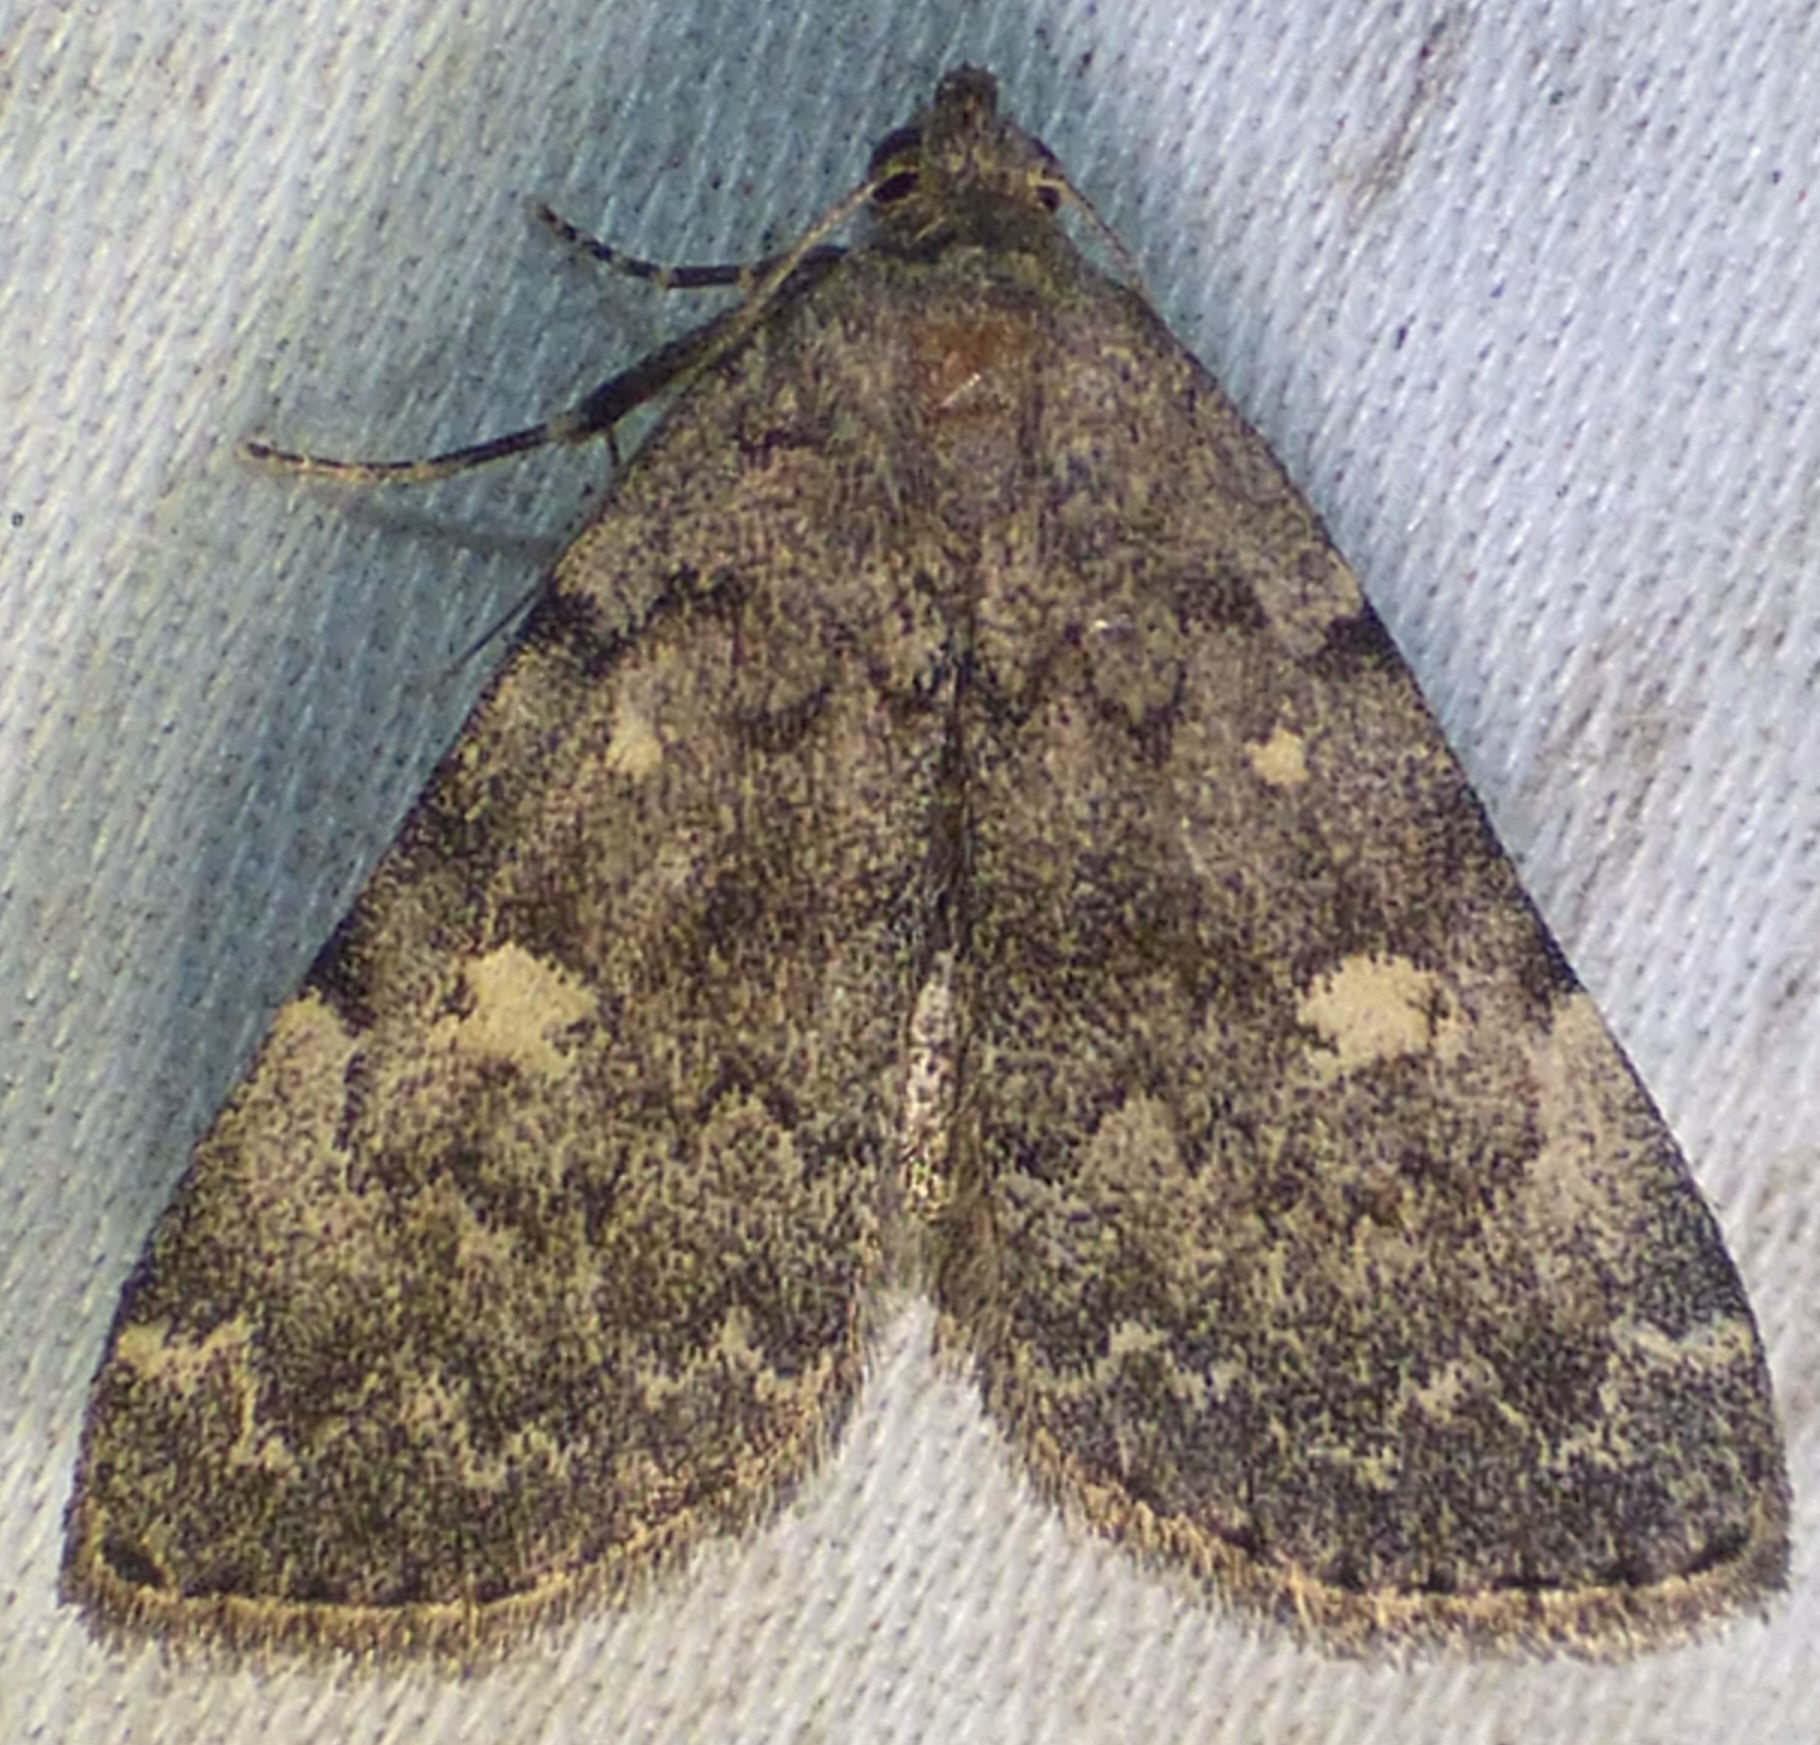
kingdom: Animalia
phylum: Arthropoda
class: Insecta
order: Lepidoptera
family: Erebidae
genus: Idia
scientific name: Idia aemula
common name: Common idia moth
